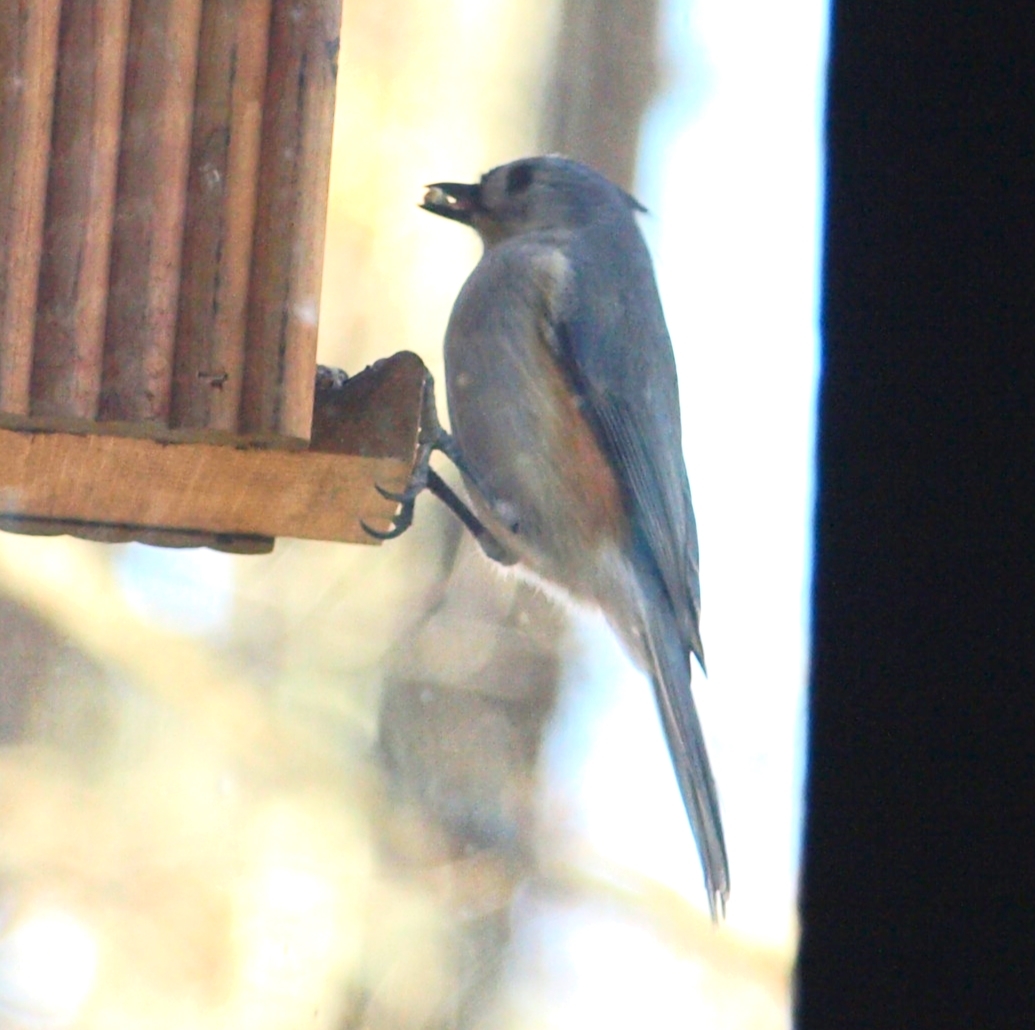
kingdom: Animalia
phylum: Chordata
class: Aves
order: Passeriformes
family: Paridae
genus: Baeolophus
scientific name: Baeolophus bicolor
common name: Tufted titmouse
